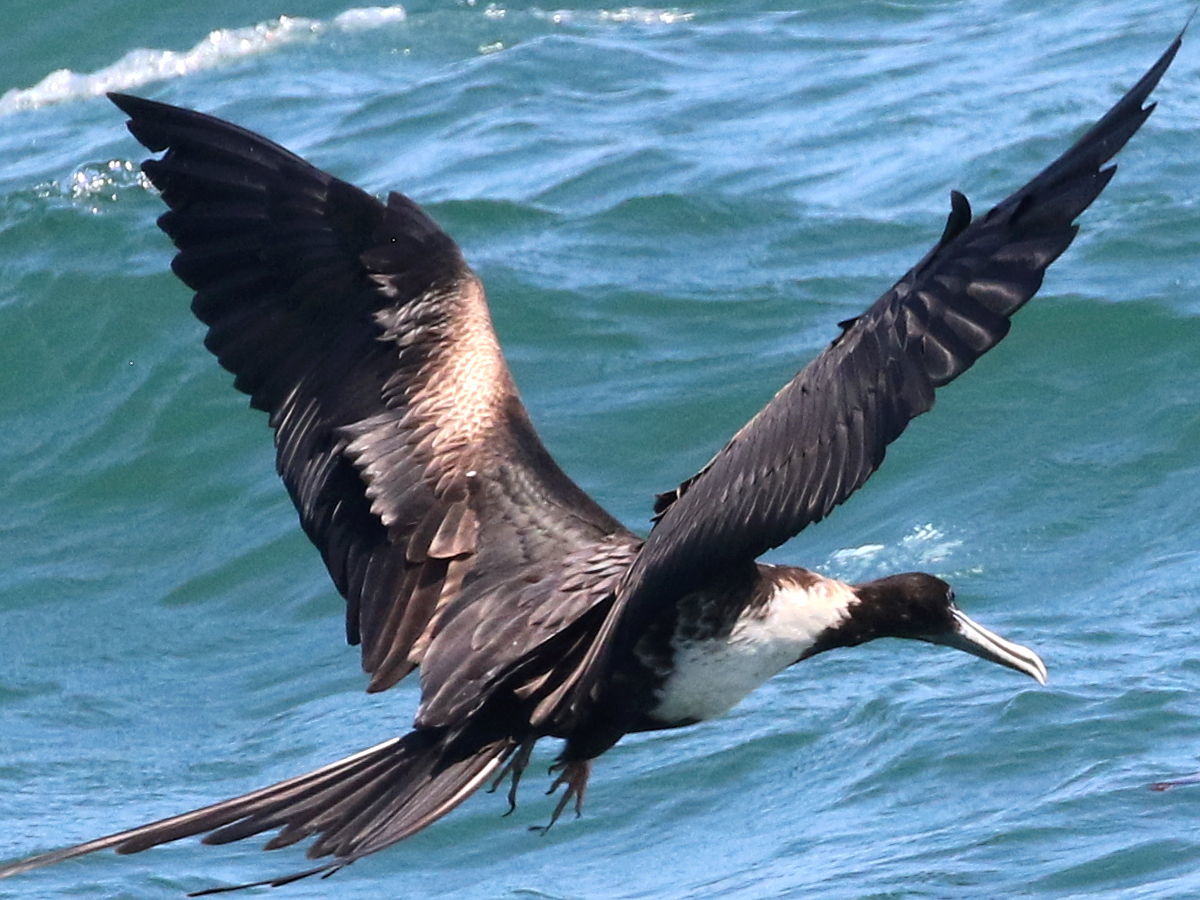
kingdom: Animalia
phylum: Chordata
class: Aves
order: Suliformes
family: Fregatidae
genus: Fregata
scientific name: Fregata magnificens
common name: Magnificent frigatebird
